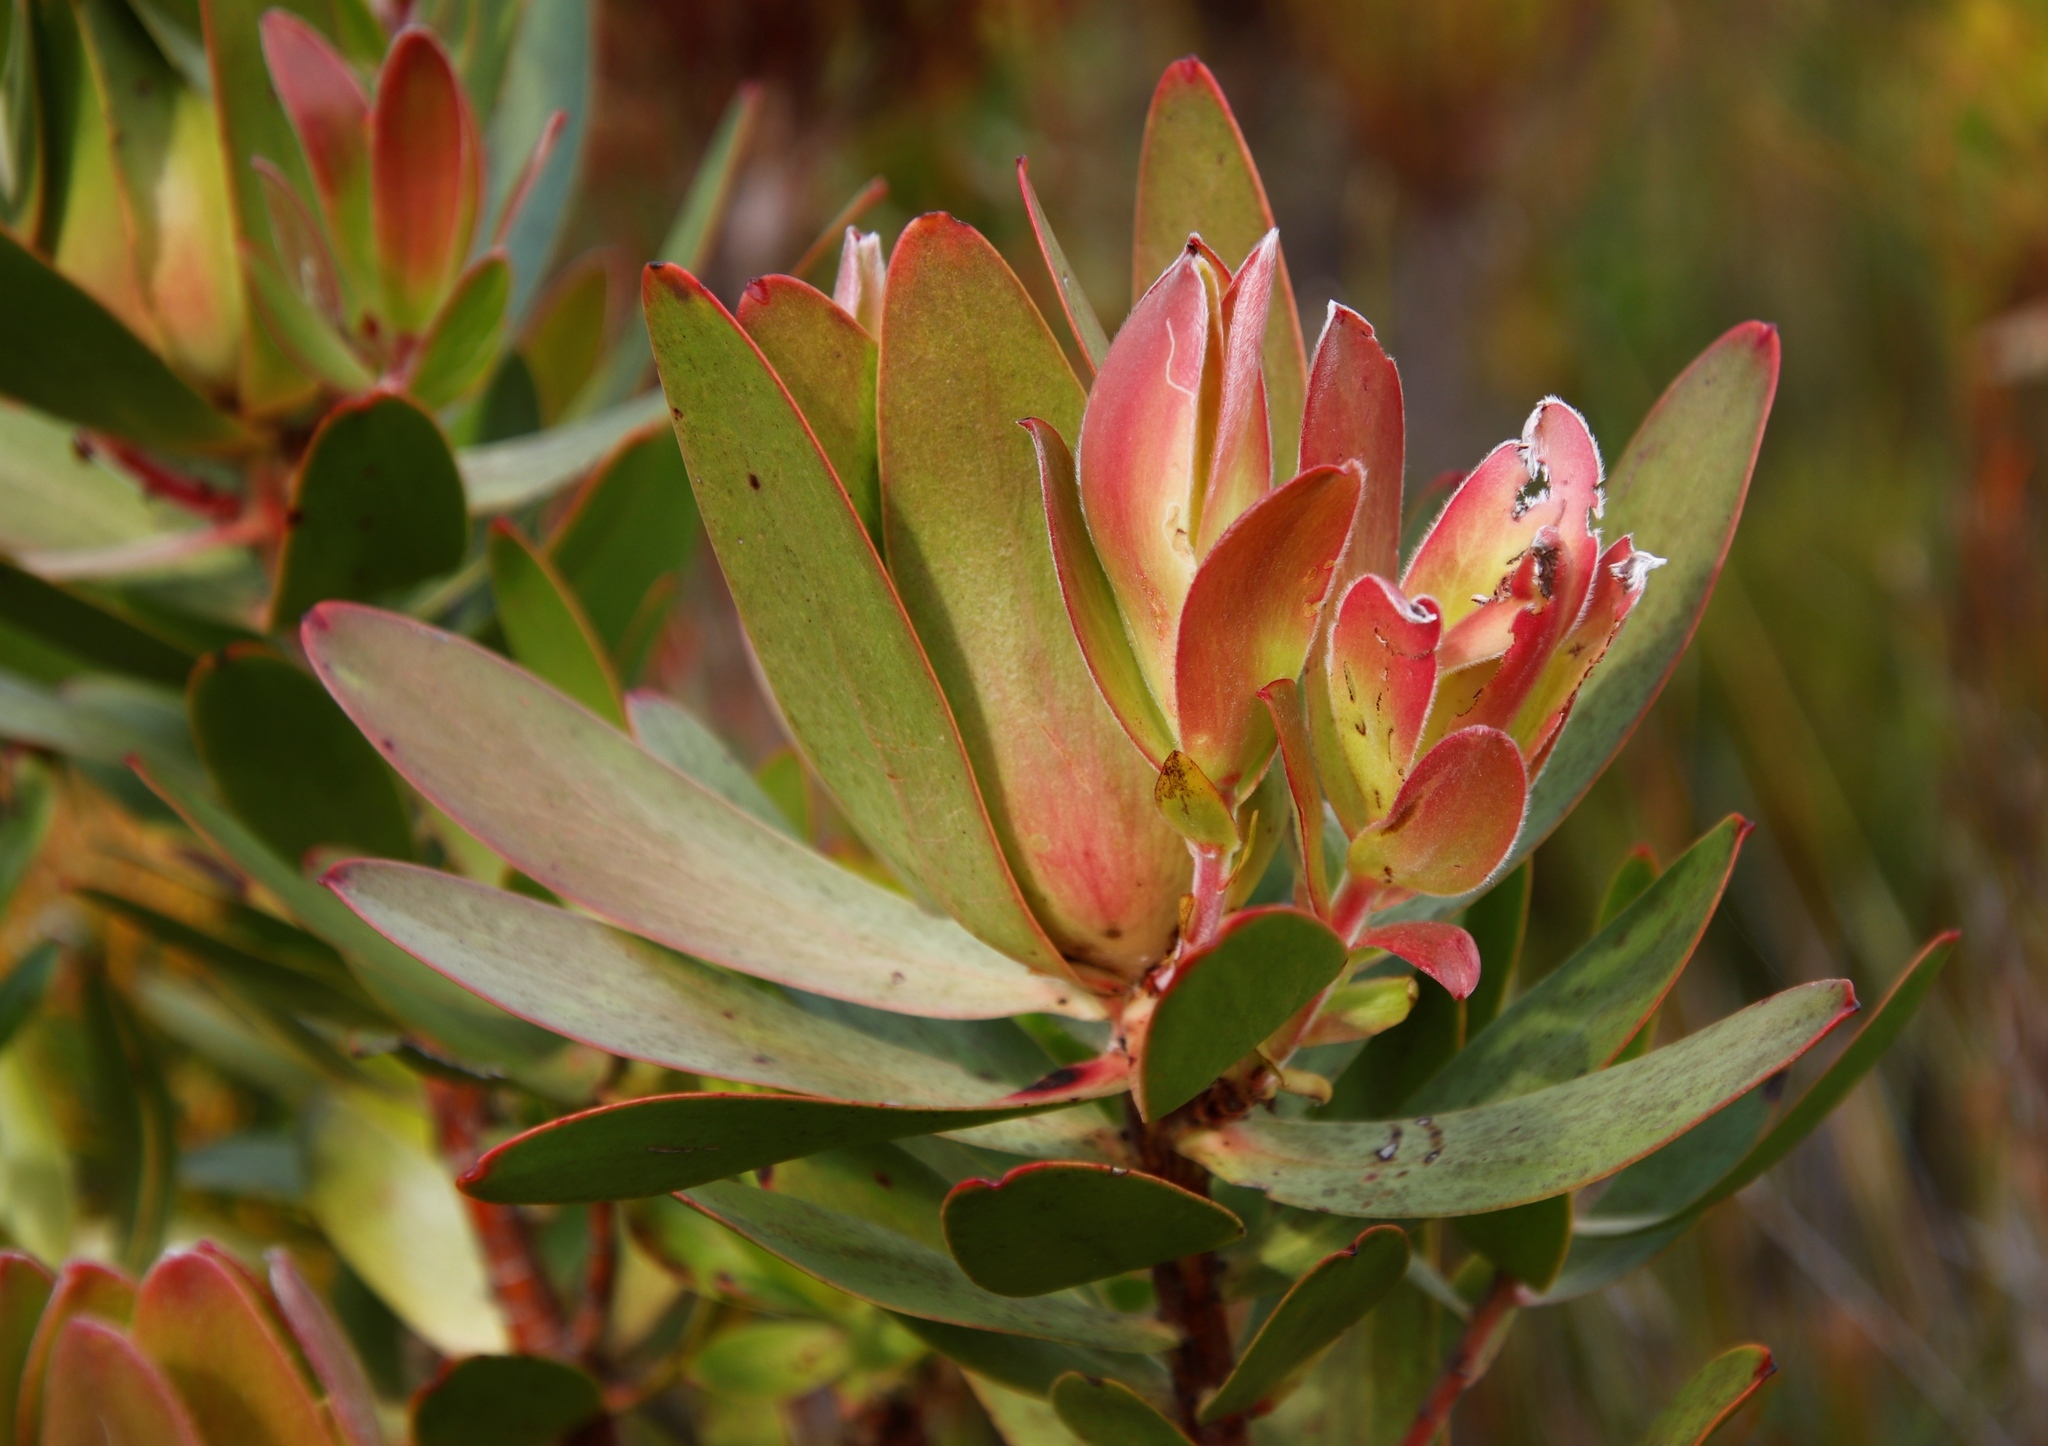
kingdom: Plantae
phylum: Tracheophyta
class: Magnoliopsida
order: Proteales
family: Proteaceae
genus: Leucadendron
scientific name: Leucadendron gandogeri
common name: Broad-leaf conebush
